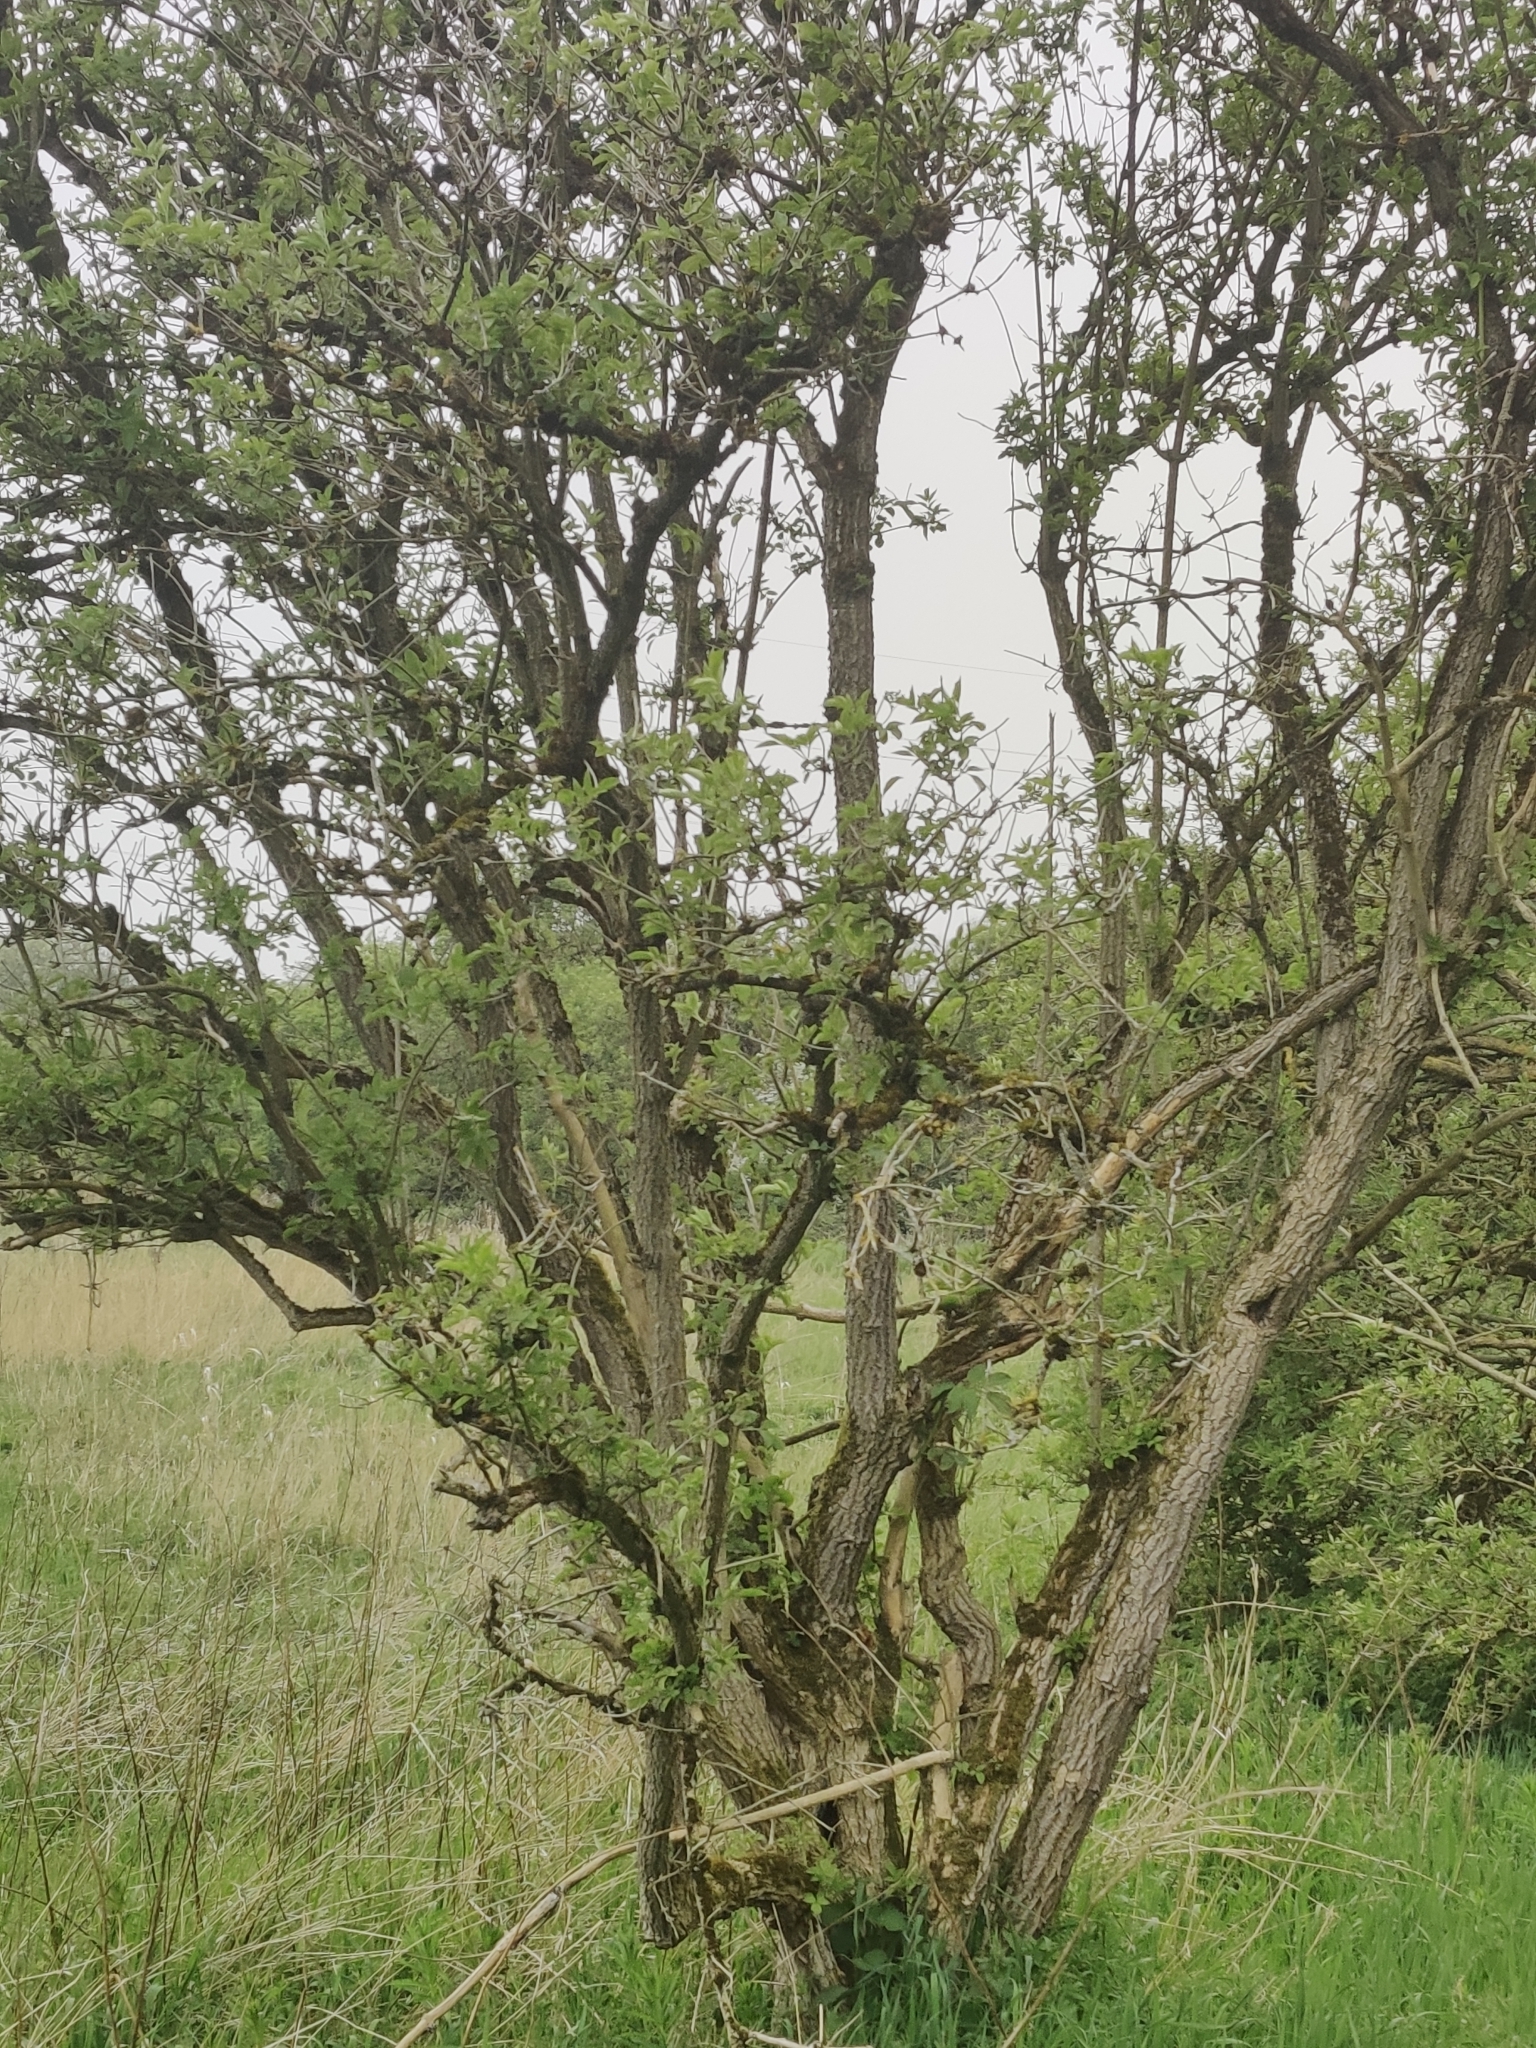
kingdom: Plantae
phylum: Tracheophyta
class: Magnoliopsida
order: Dipsacales
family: Viburnaceae
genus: Sambucus
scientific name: Sambucus nigra
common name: Elder
